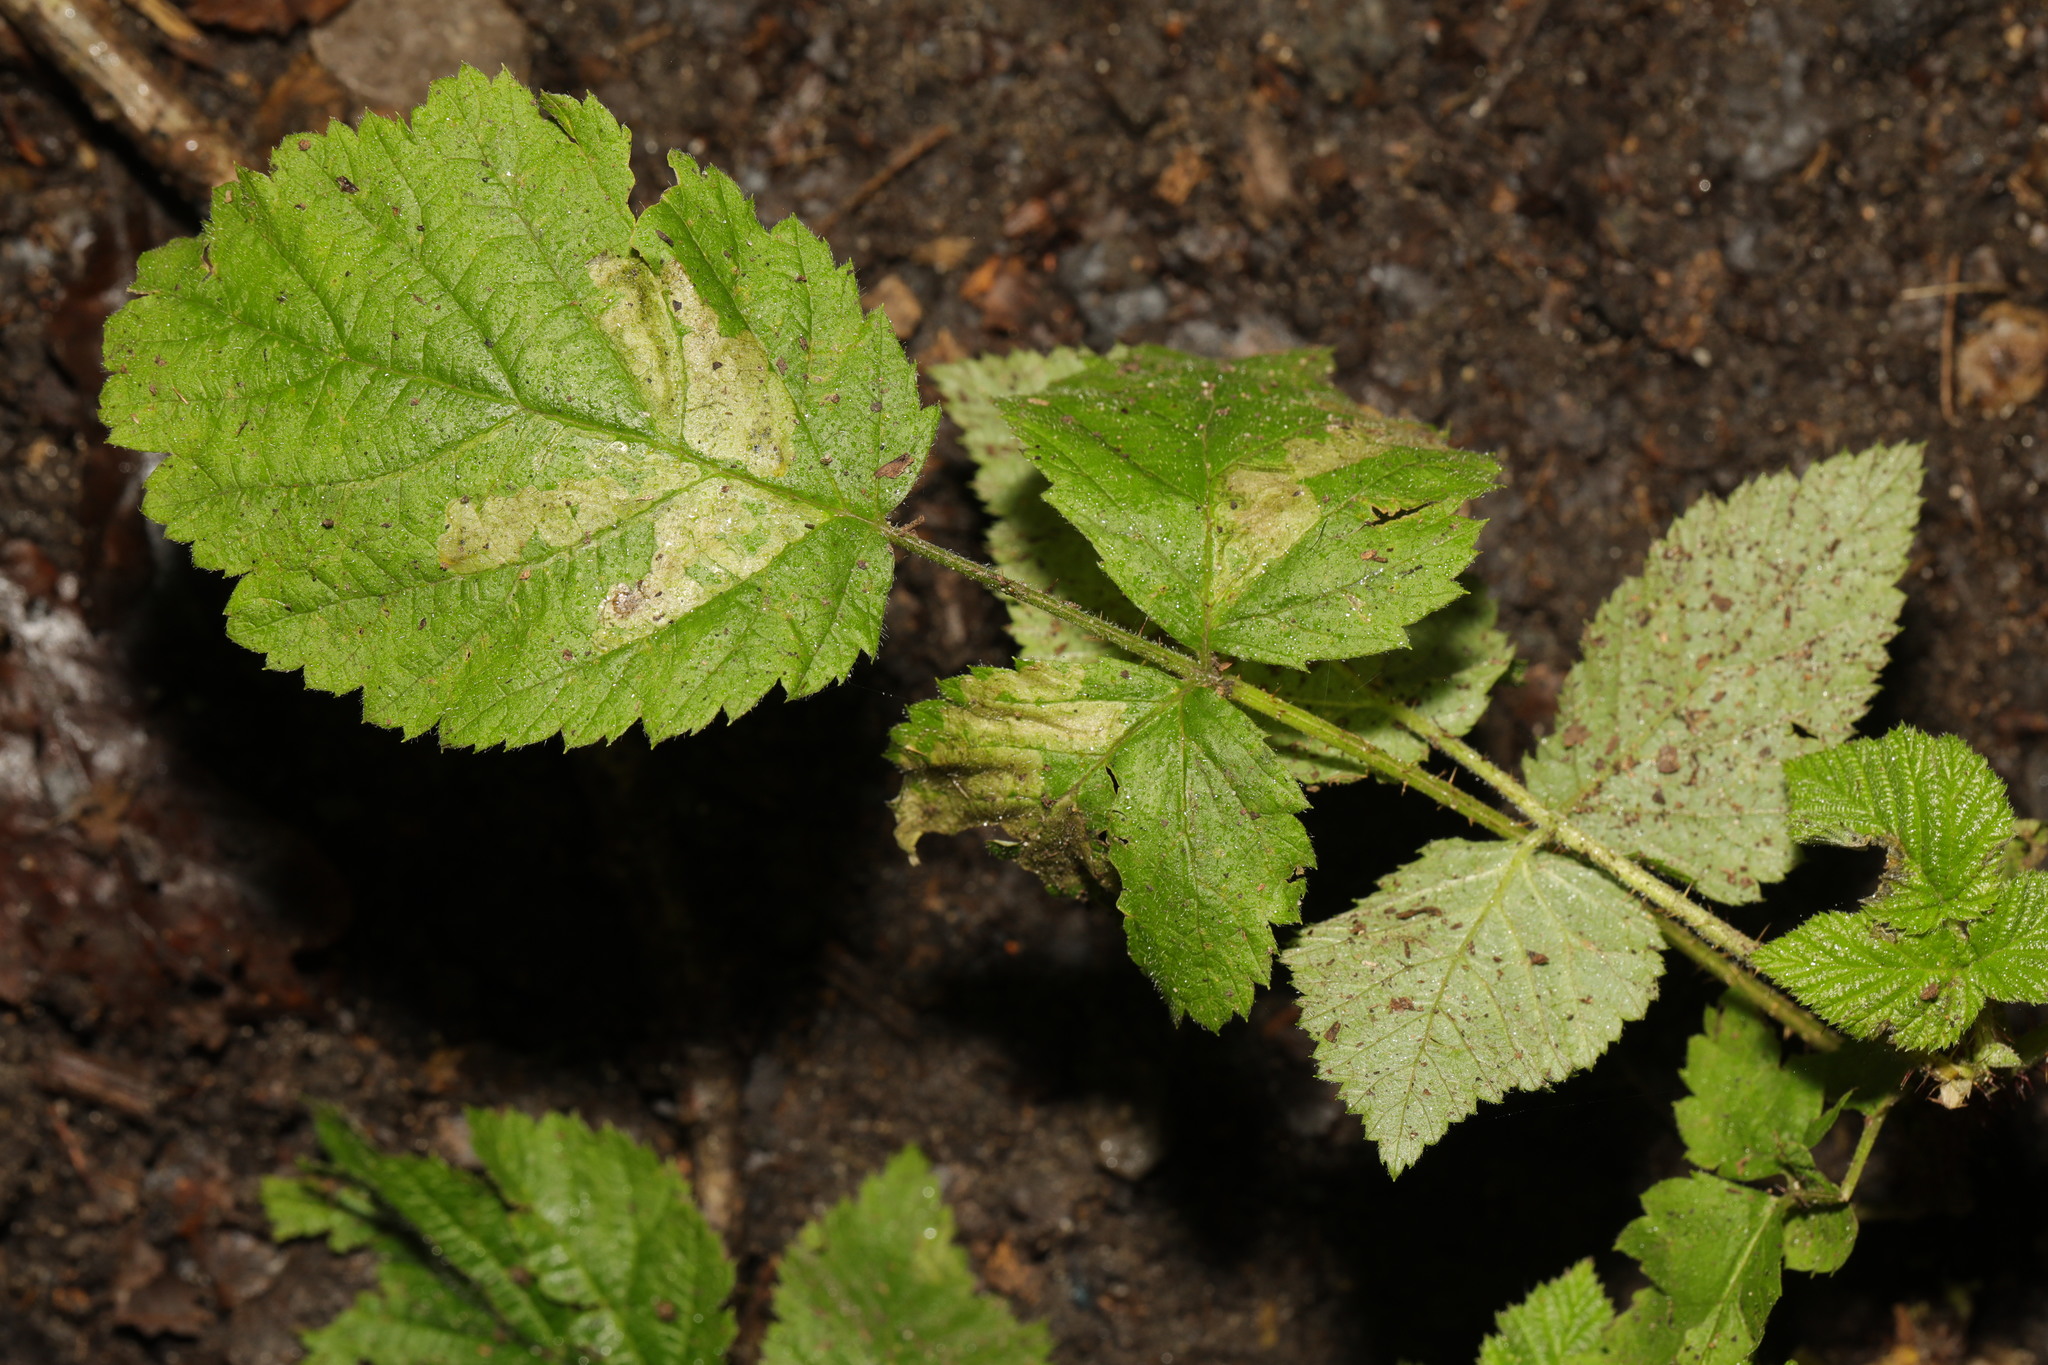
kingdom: Plantae
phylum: Tracheophyta
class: Magnoliopsida
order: Rosales
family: Rosaceae
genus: Rubus
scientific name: Rubus idaeus
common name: Raspberry
